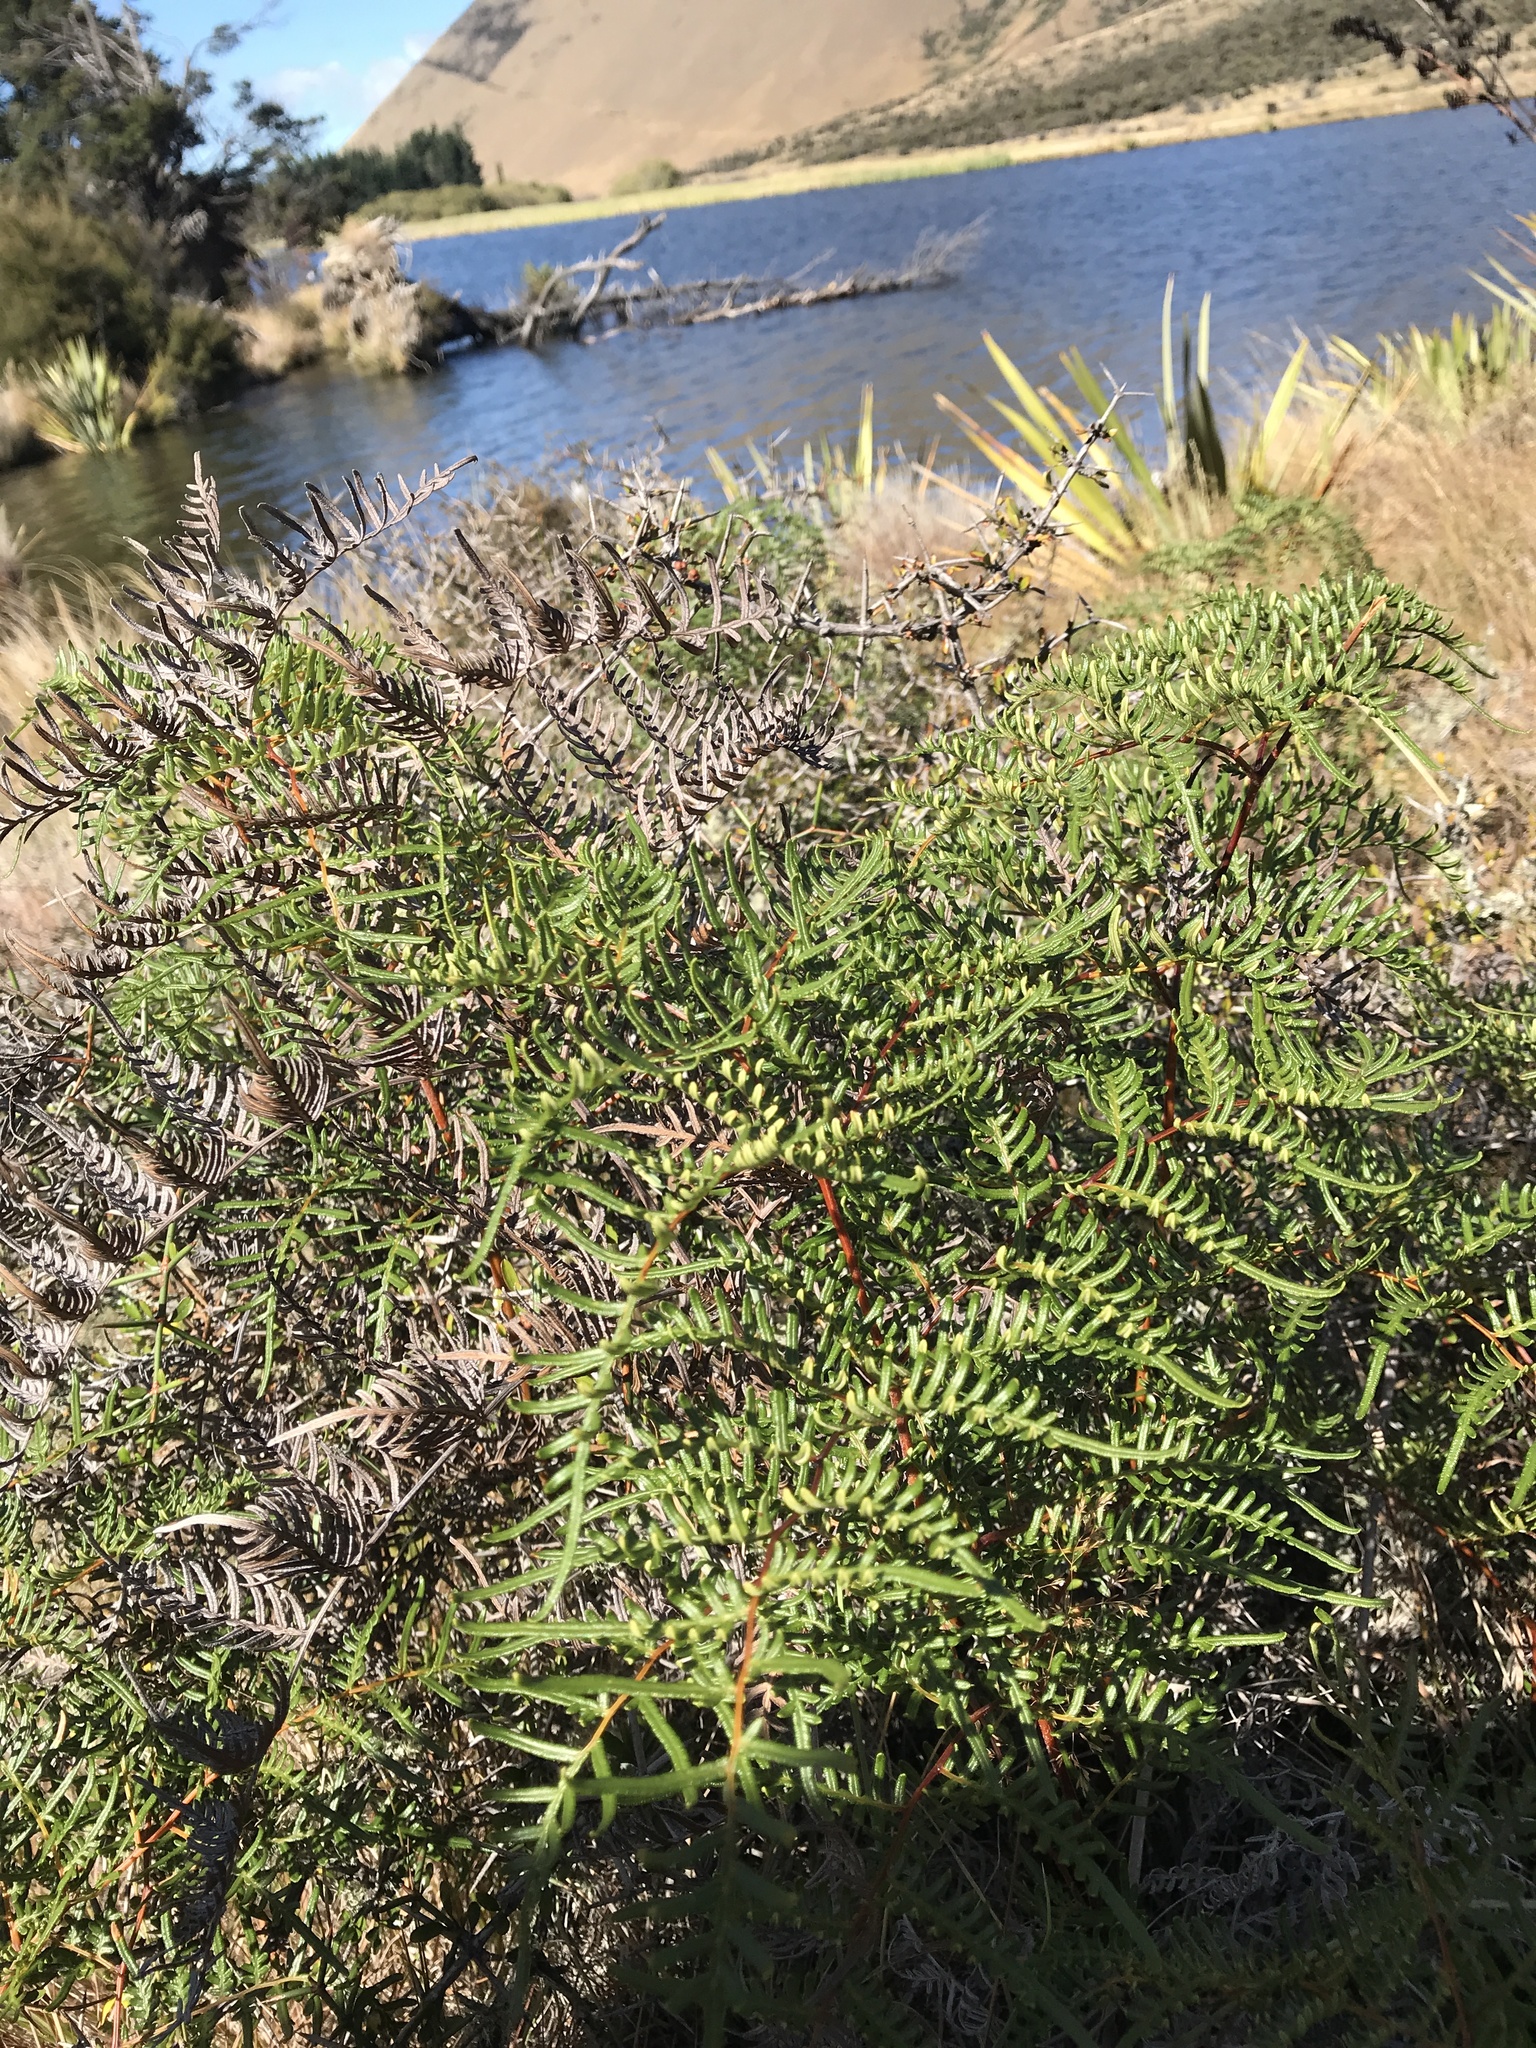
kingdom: Plantae
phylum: Tracheophyta
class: Polypodiopsida
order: Polypodiales
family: Dennstaedtiaceae
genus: Pteridium
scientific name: Pteridium esculentum
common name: Bracken fern
